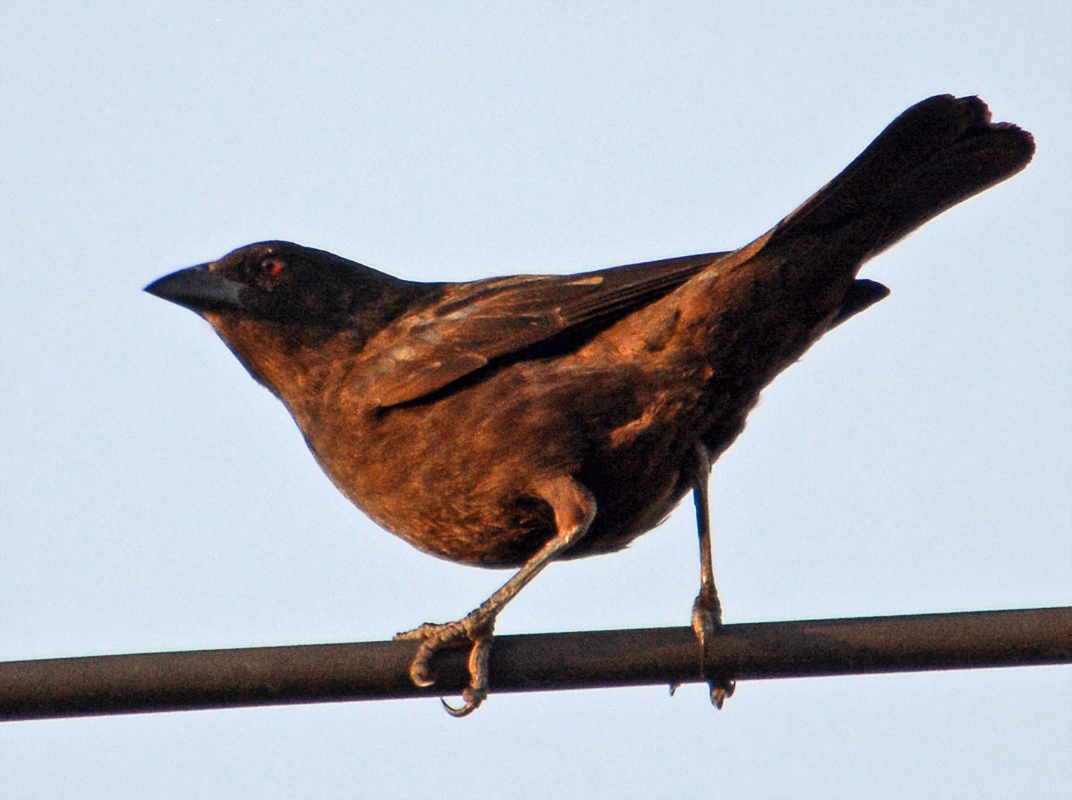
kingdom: Animalia
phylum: Chordata
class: Aves
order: Passeriformes
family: Icteridae
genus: Molothrus
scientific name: Molothrus aeneus
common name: Bronzed cowbird
